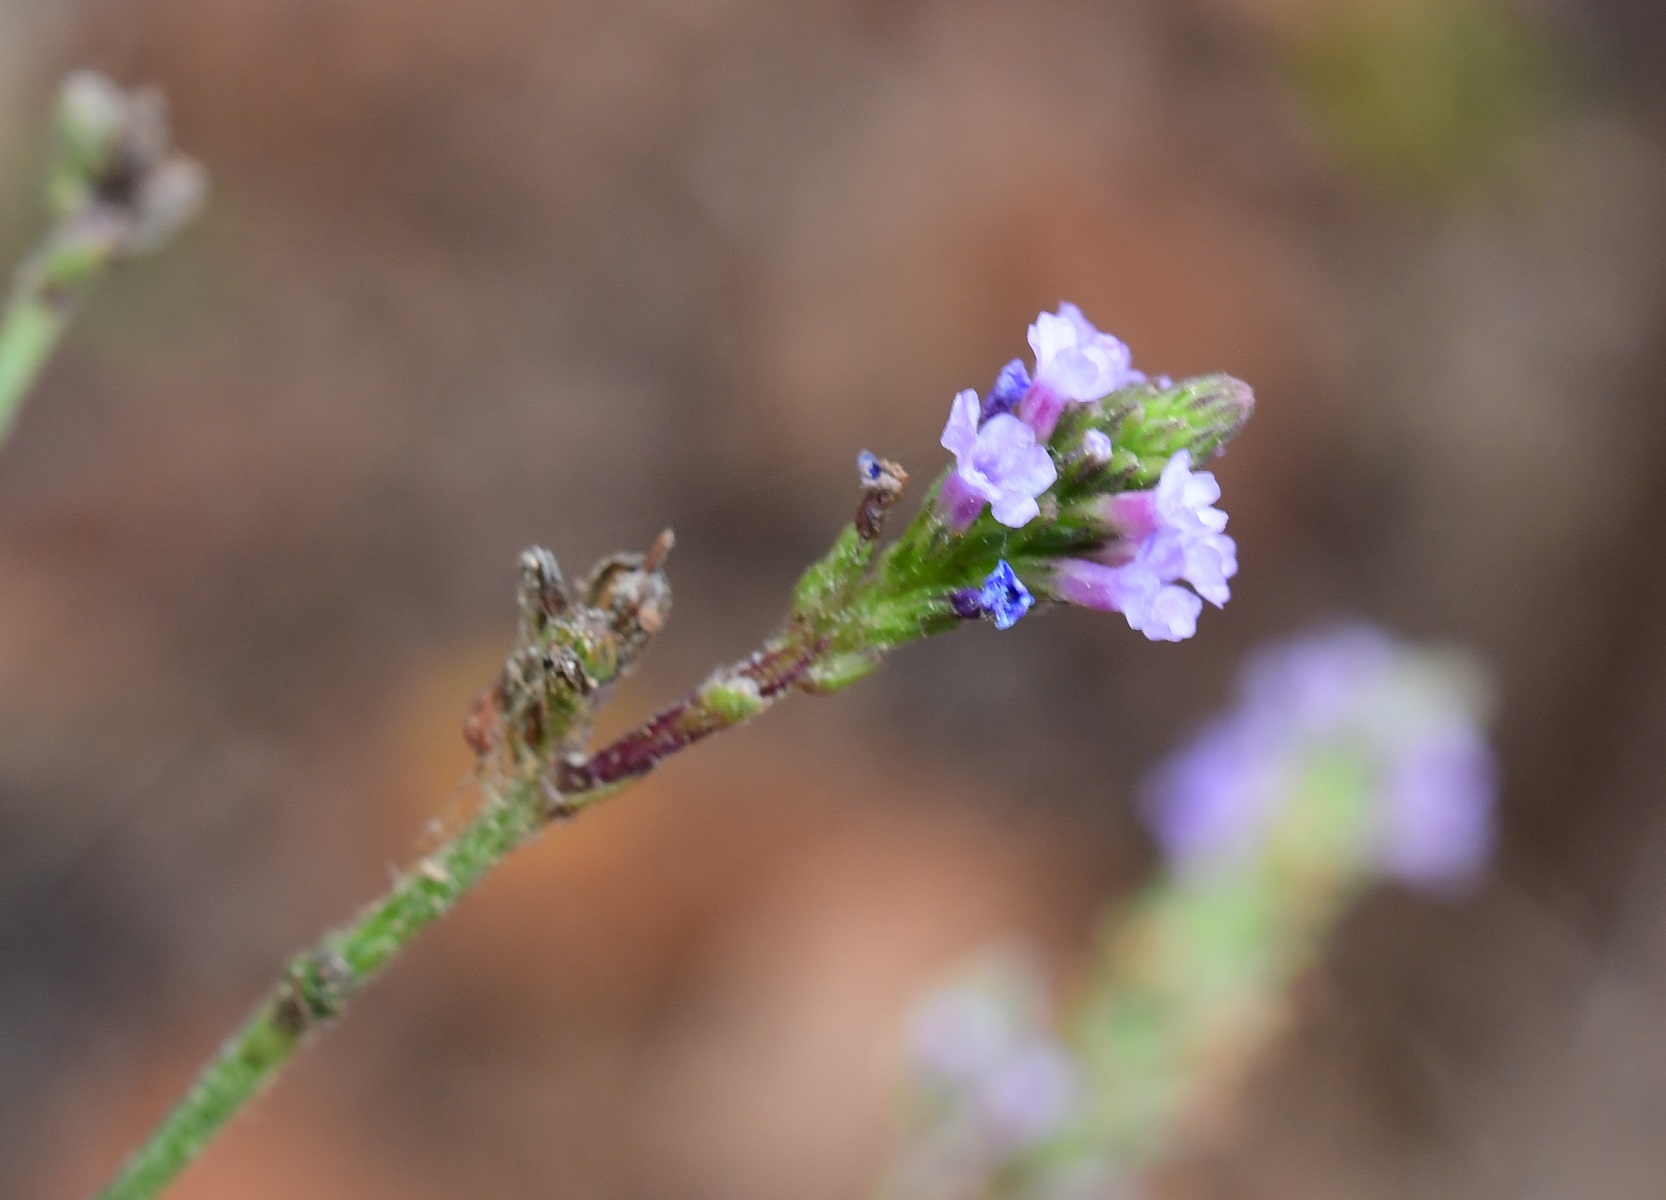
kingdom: Plantae
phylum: Tracheophyta
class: Magnoliopsida
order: Lamiales
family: Verbenaceae
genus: Verbena
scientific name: Verbena carolina
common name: Carolina vervain
